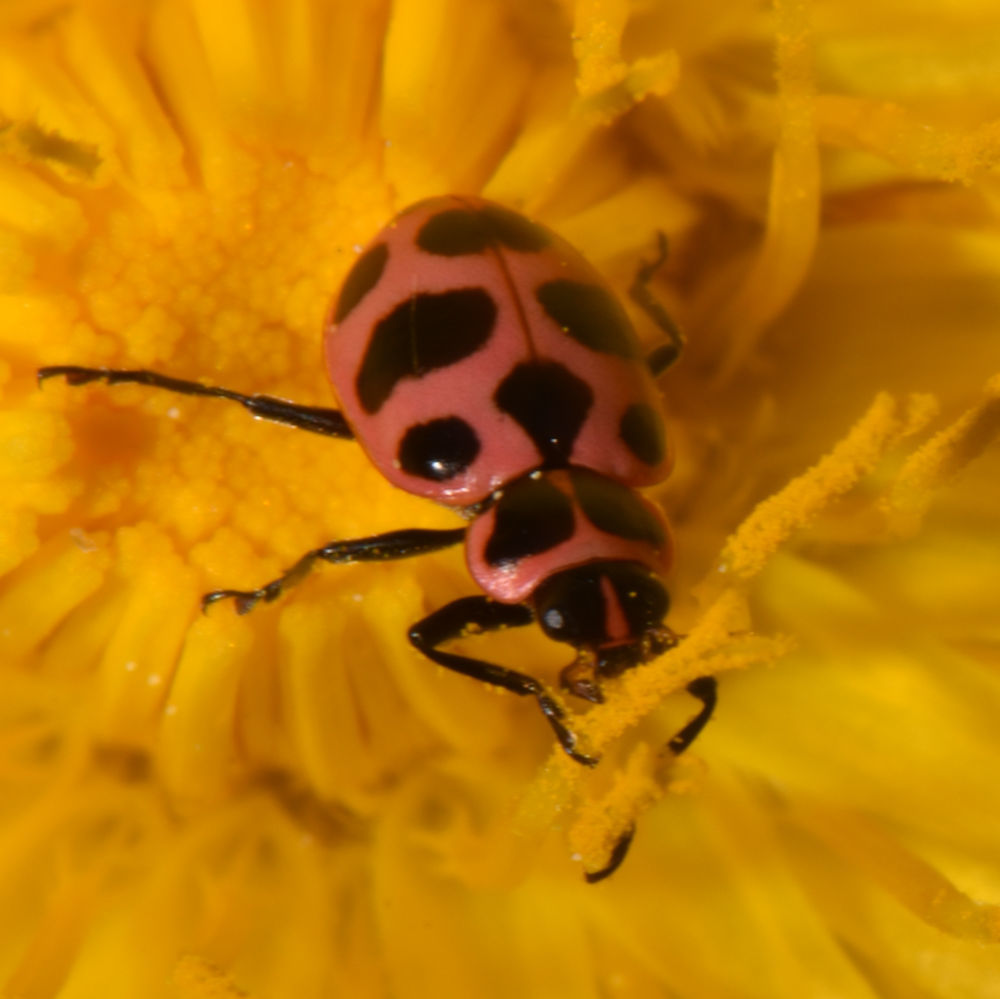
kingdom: Animalia
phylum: Arthropoda
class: Insecta
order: Coleoptera
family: Coccinellidae
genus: Coleomegilla
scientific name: Coleomegilla maculata
